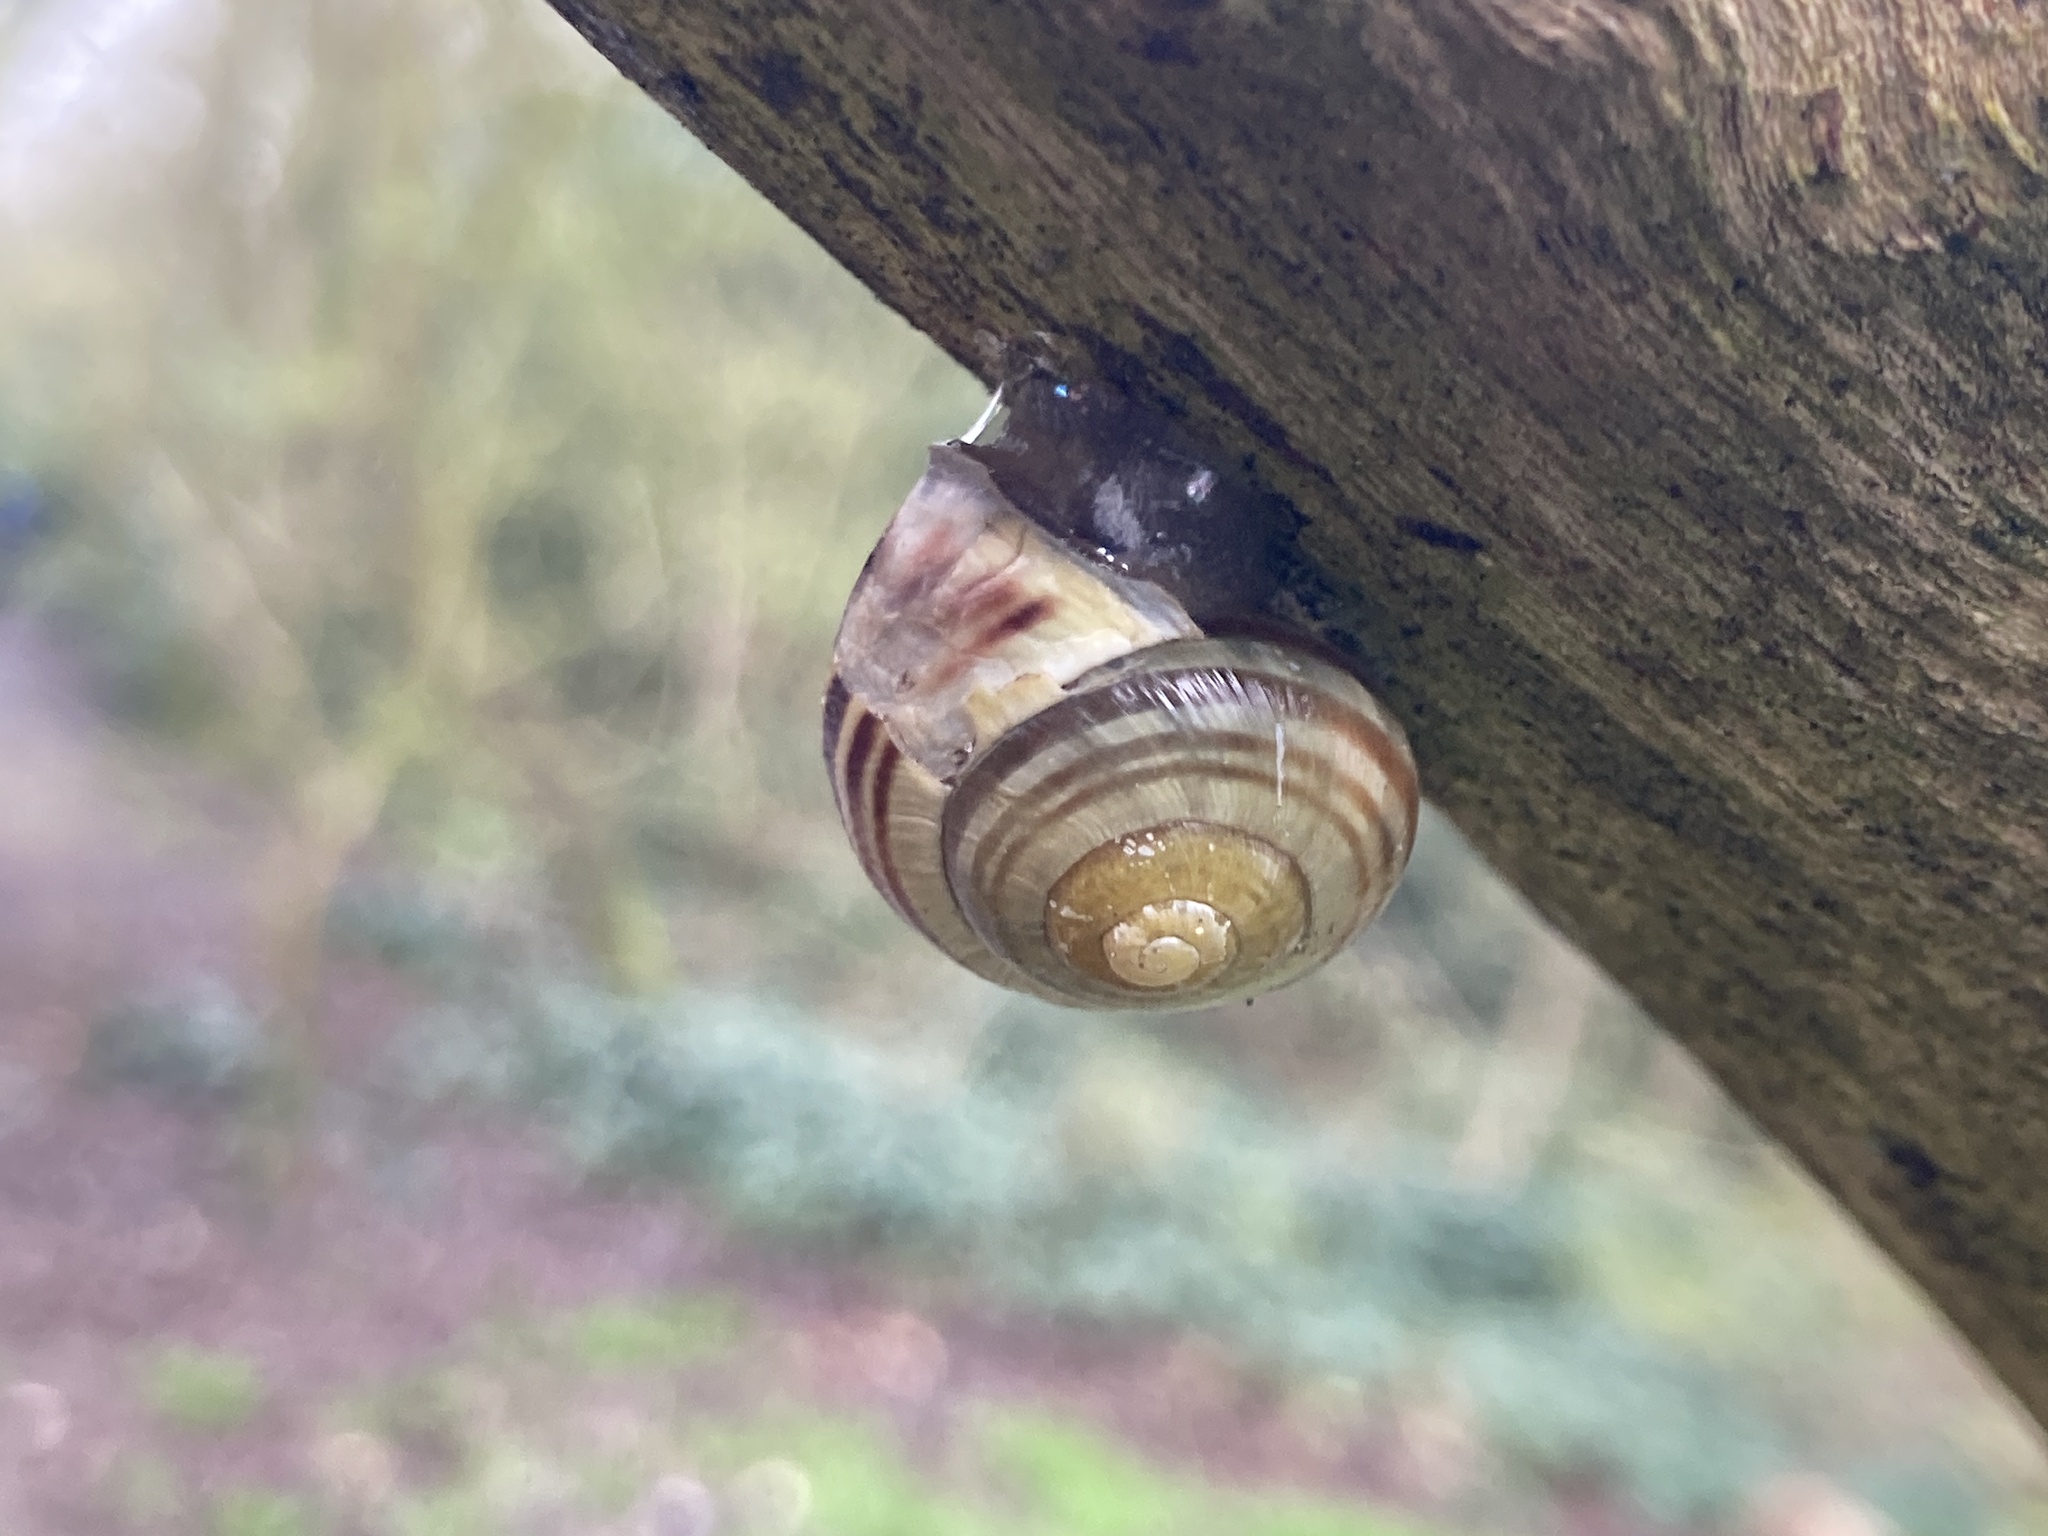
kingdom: Animalia
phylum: Mollusca
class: Gastropoda
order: Stylommatophora
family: Helicidae
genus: Cepaea
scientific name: Cepaea hortensis
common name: White-lip gardensnail
